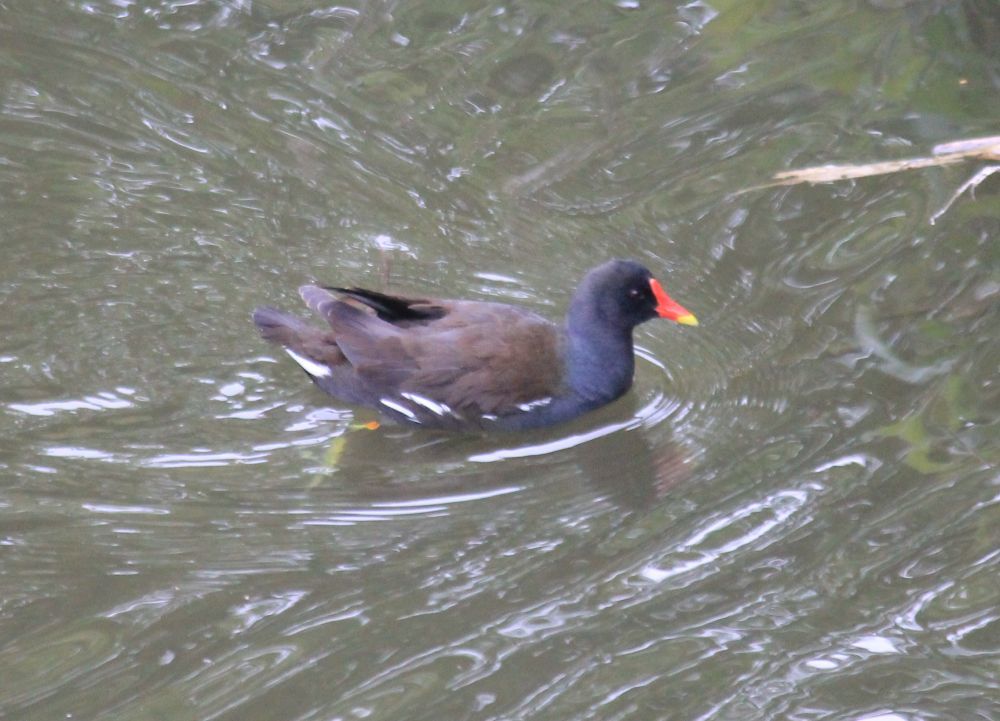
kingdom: Animalia
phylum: Chordata
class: Aves
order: Gruiformes
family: Rallidae
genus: Gallinula
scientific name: Gallinula chloropus
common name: Common moorhen
